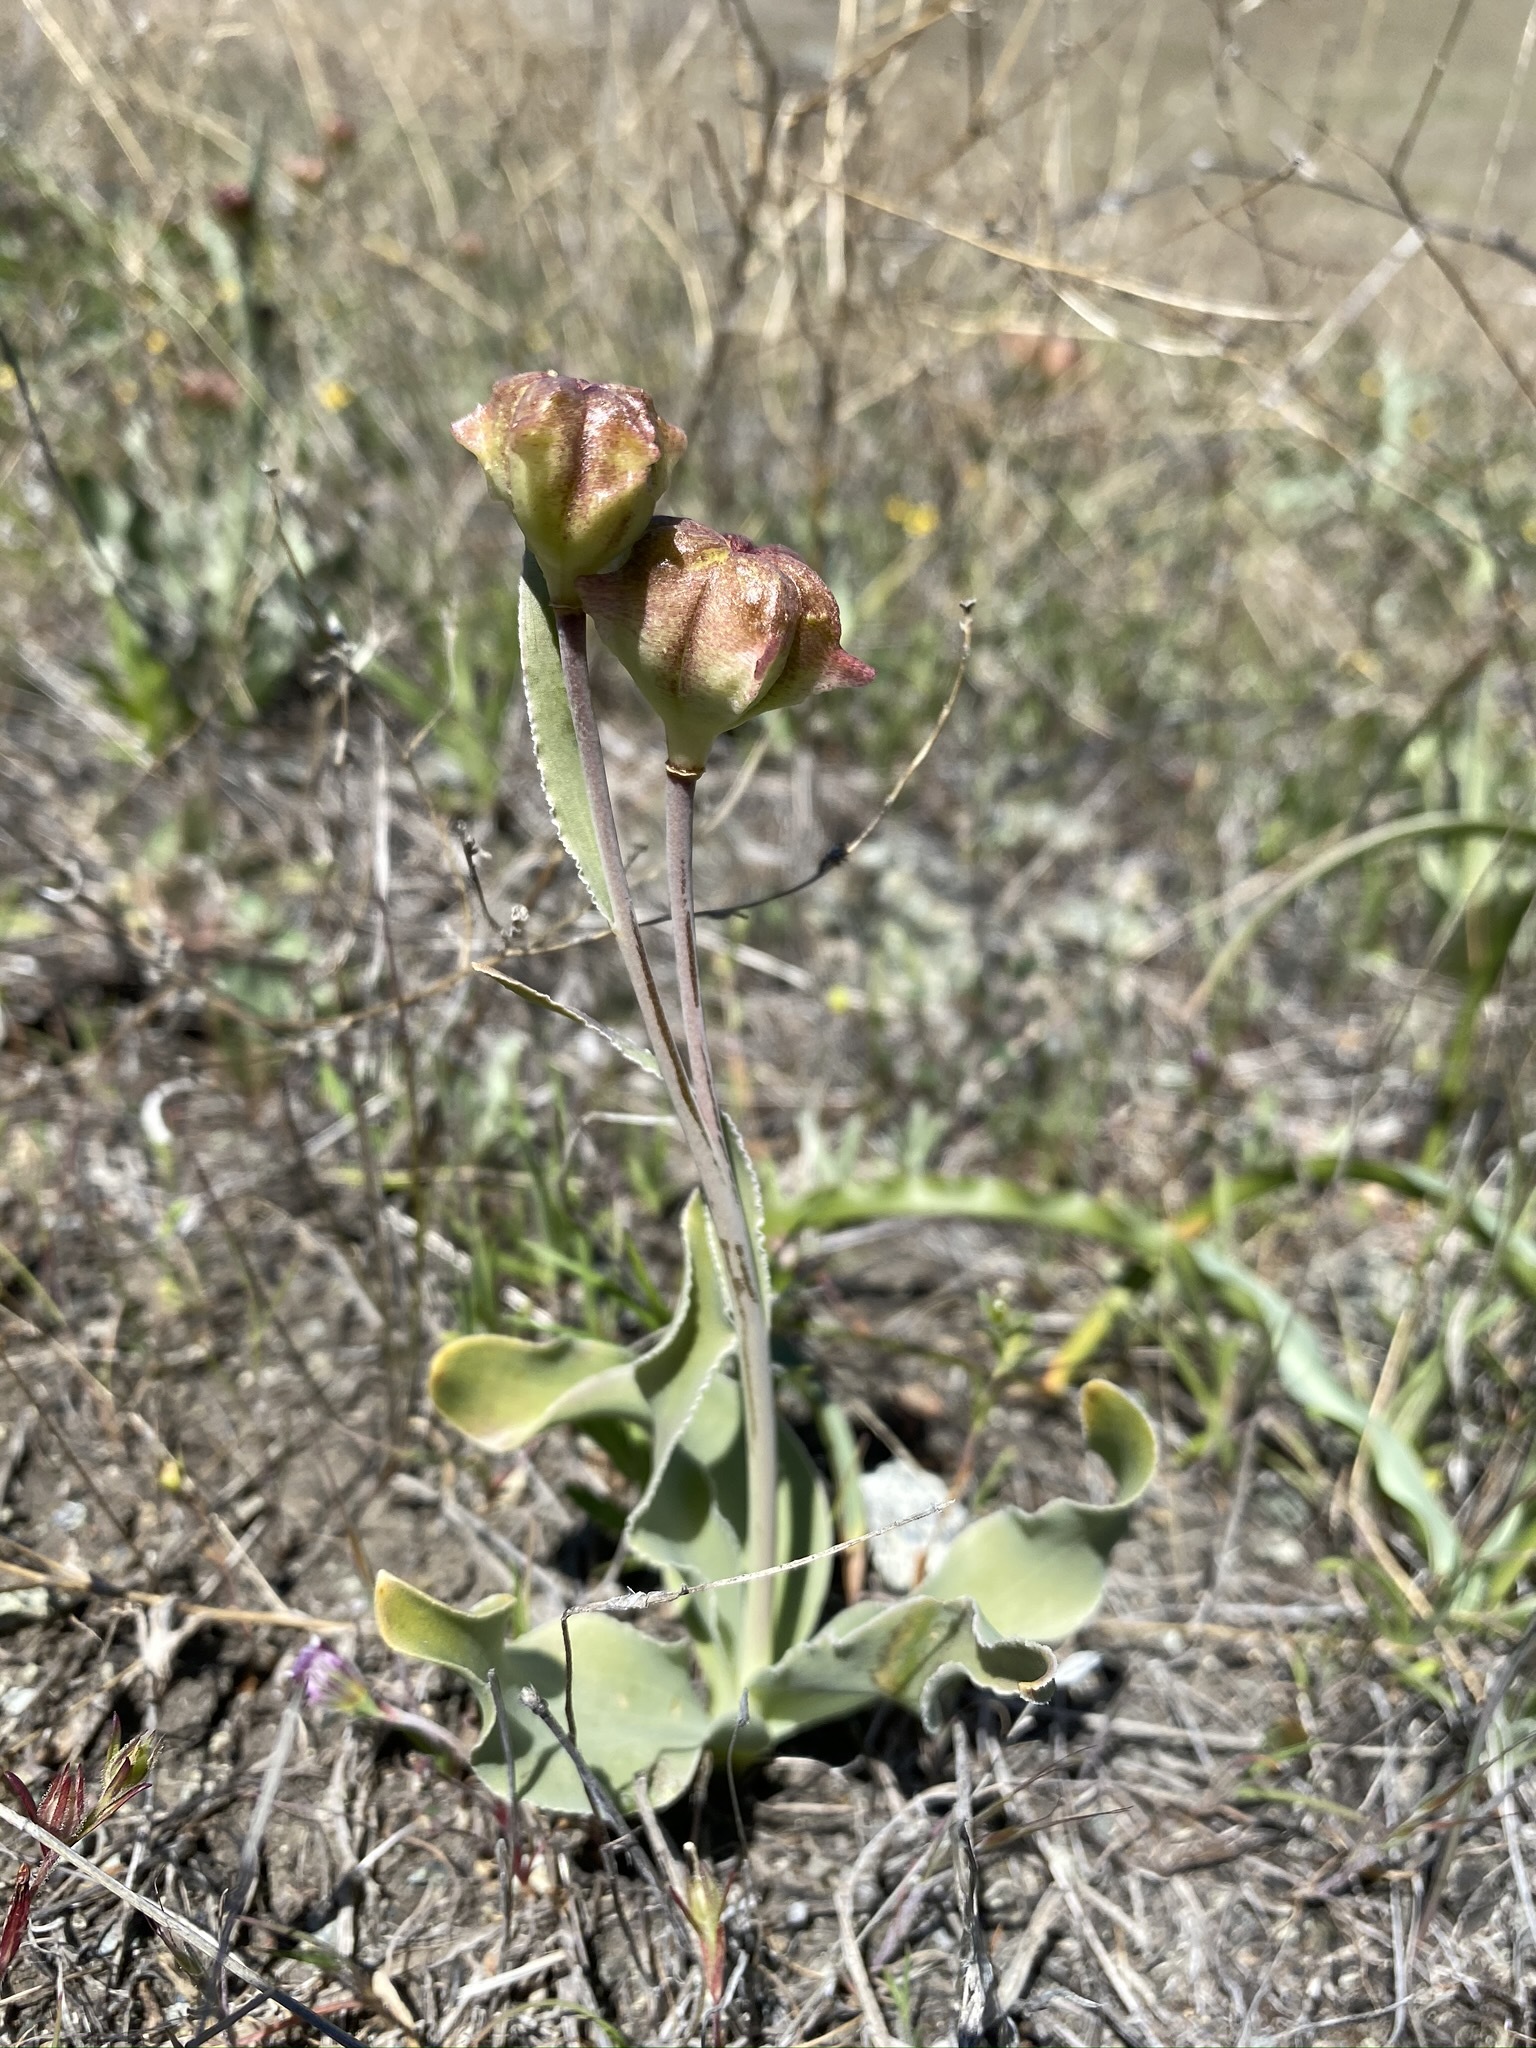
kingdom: Plantae
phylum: Tracheophyta
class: Liliopsida
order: Liliales
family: Liliaceae
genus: Fritillaria
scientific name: Fritillaria pluriflora
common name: Adobe-lily
